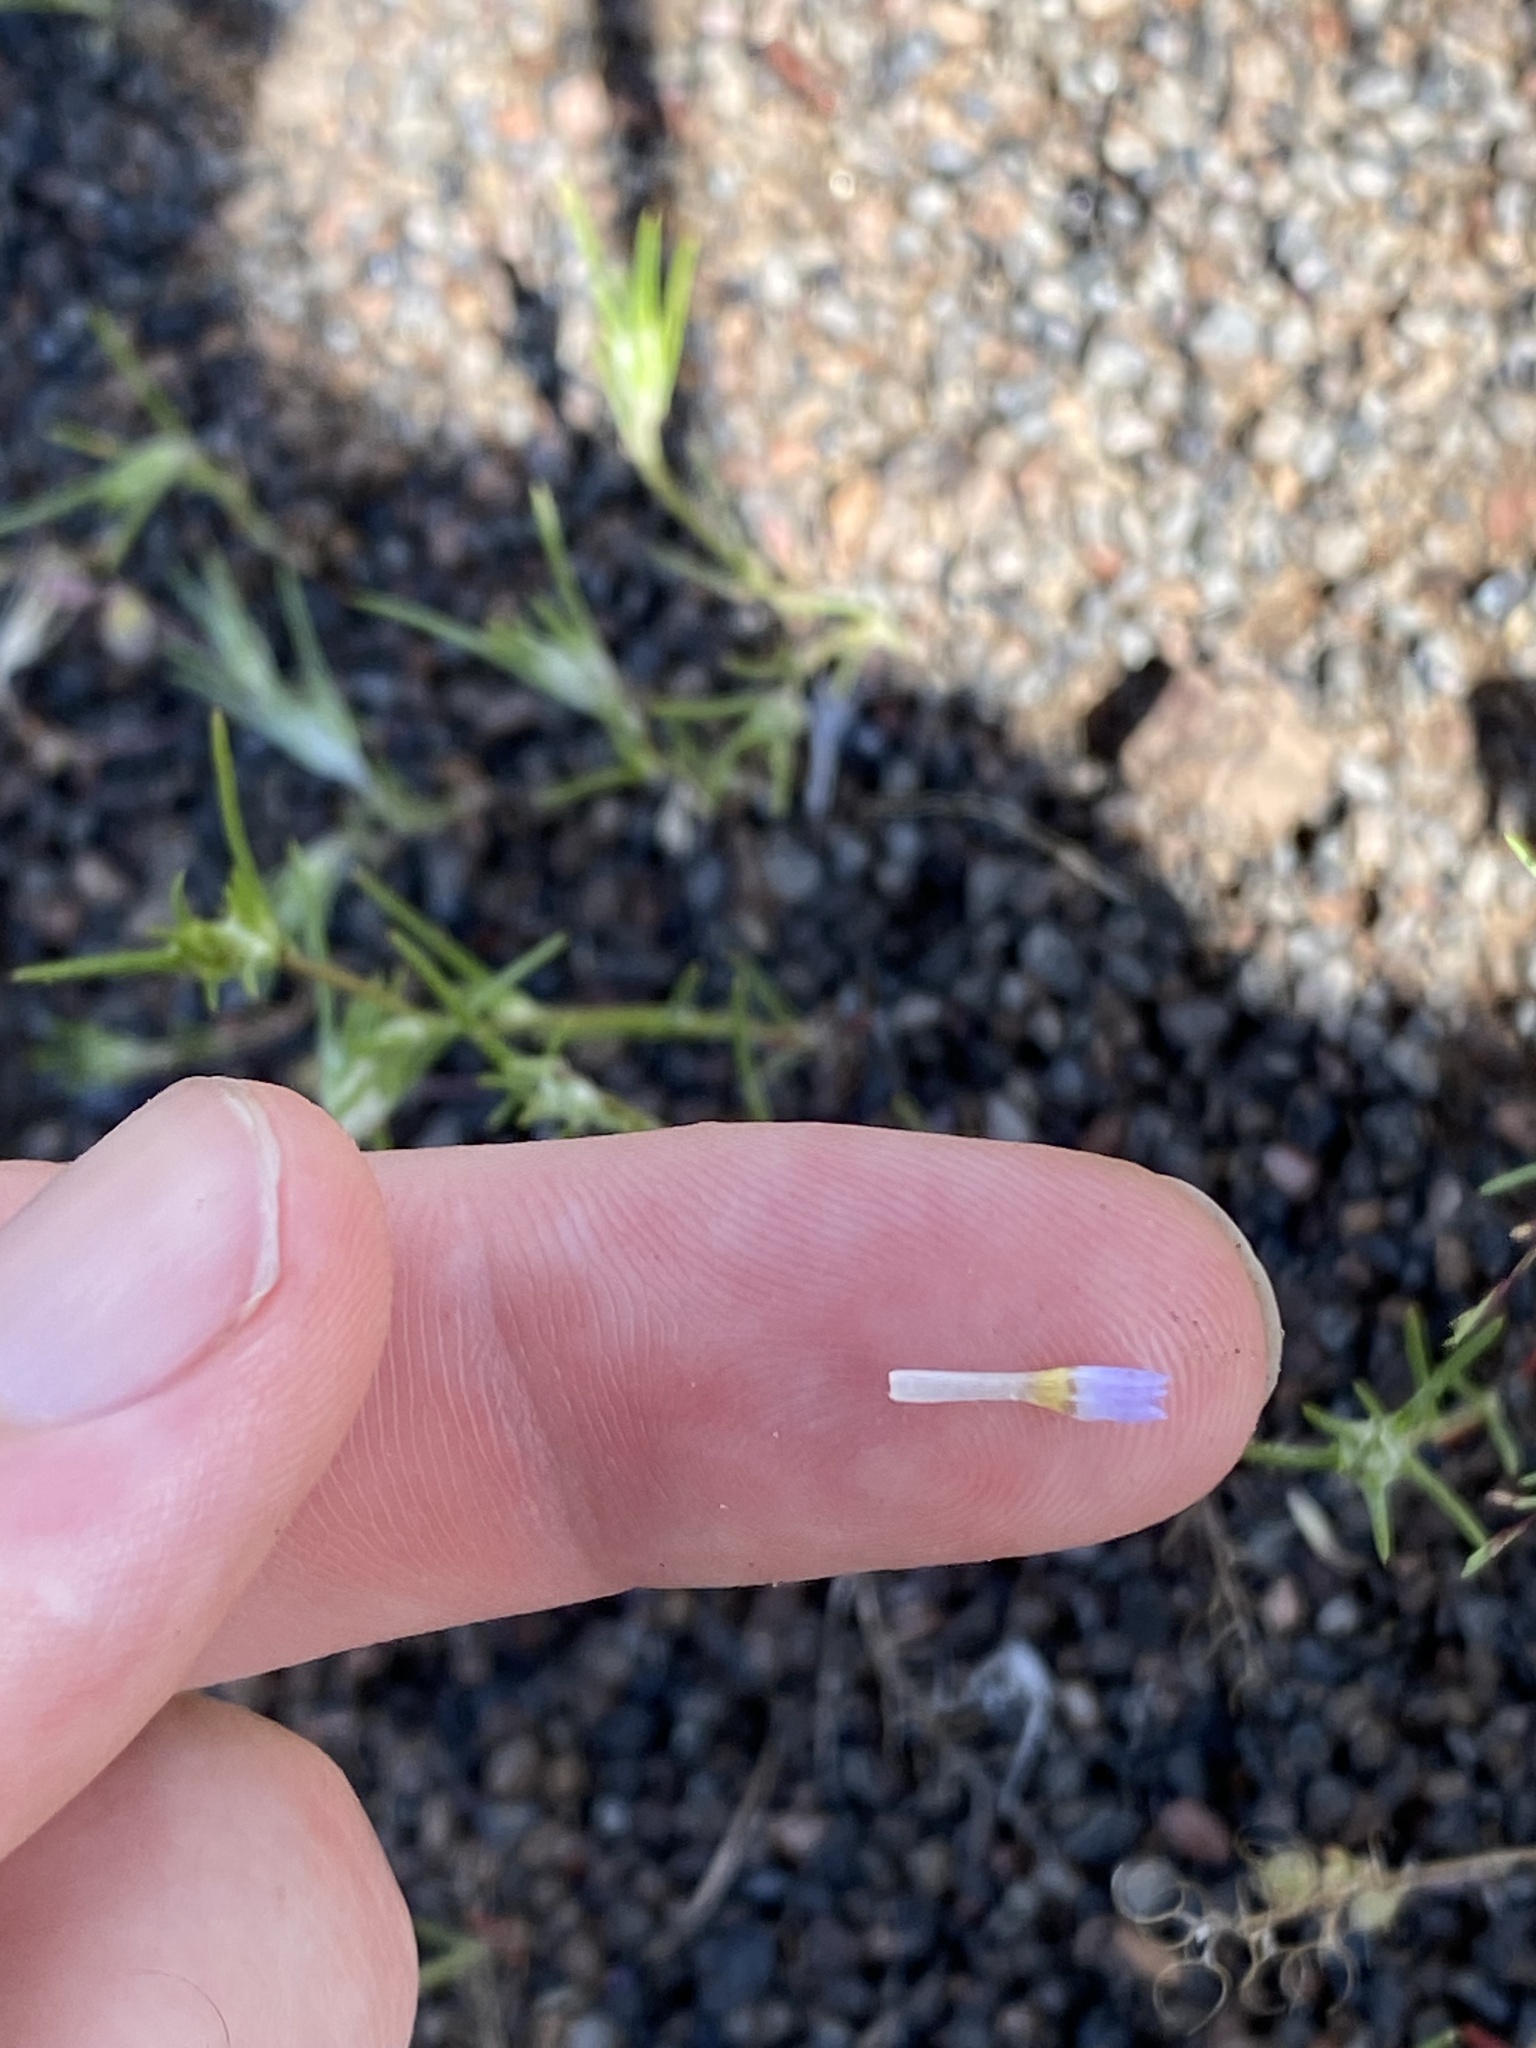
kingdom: Plantae
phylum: Tracheophyta
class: Magnoliopsida
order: Ericales
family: Polemoniaceae
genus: Eriastrum
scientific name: Eriastrum signatum
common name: Great basin woollystar
